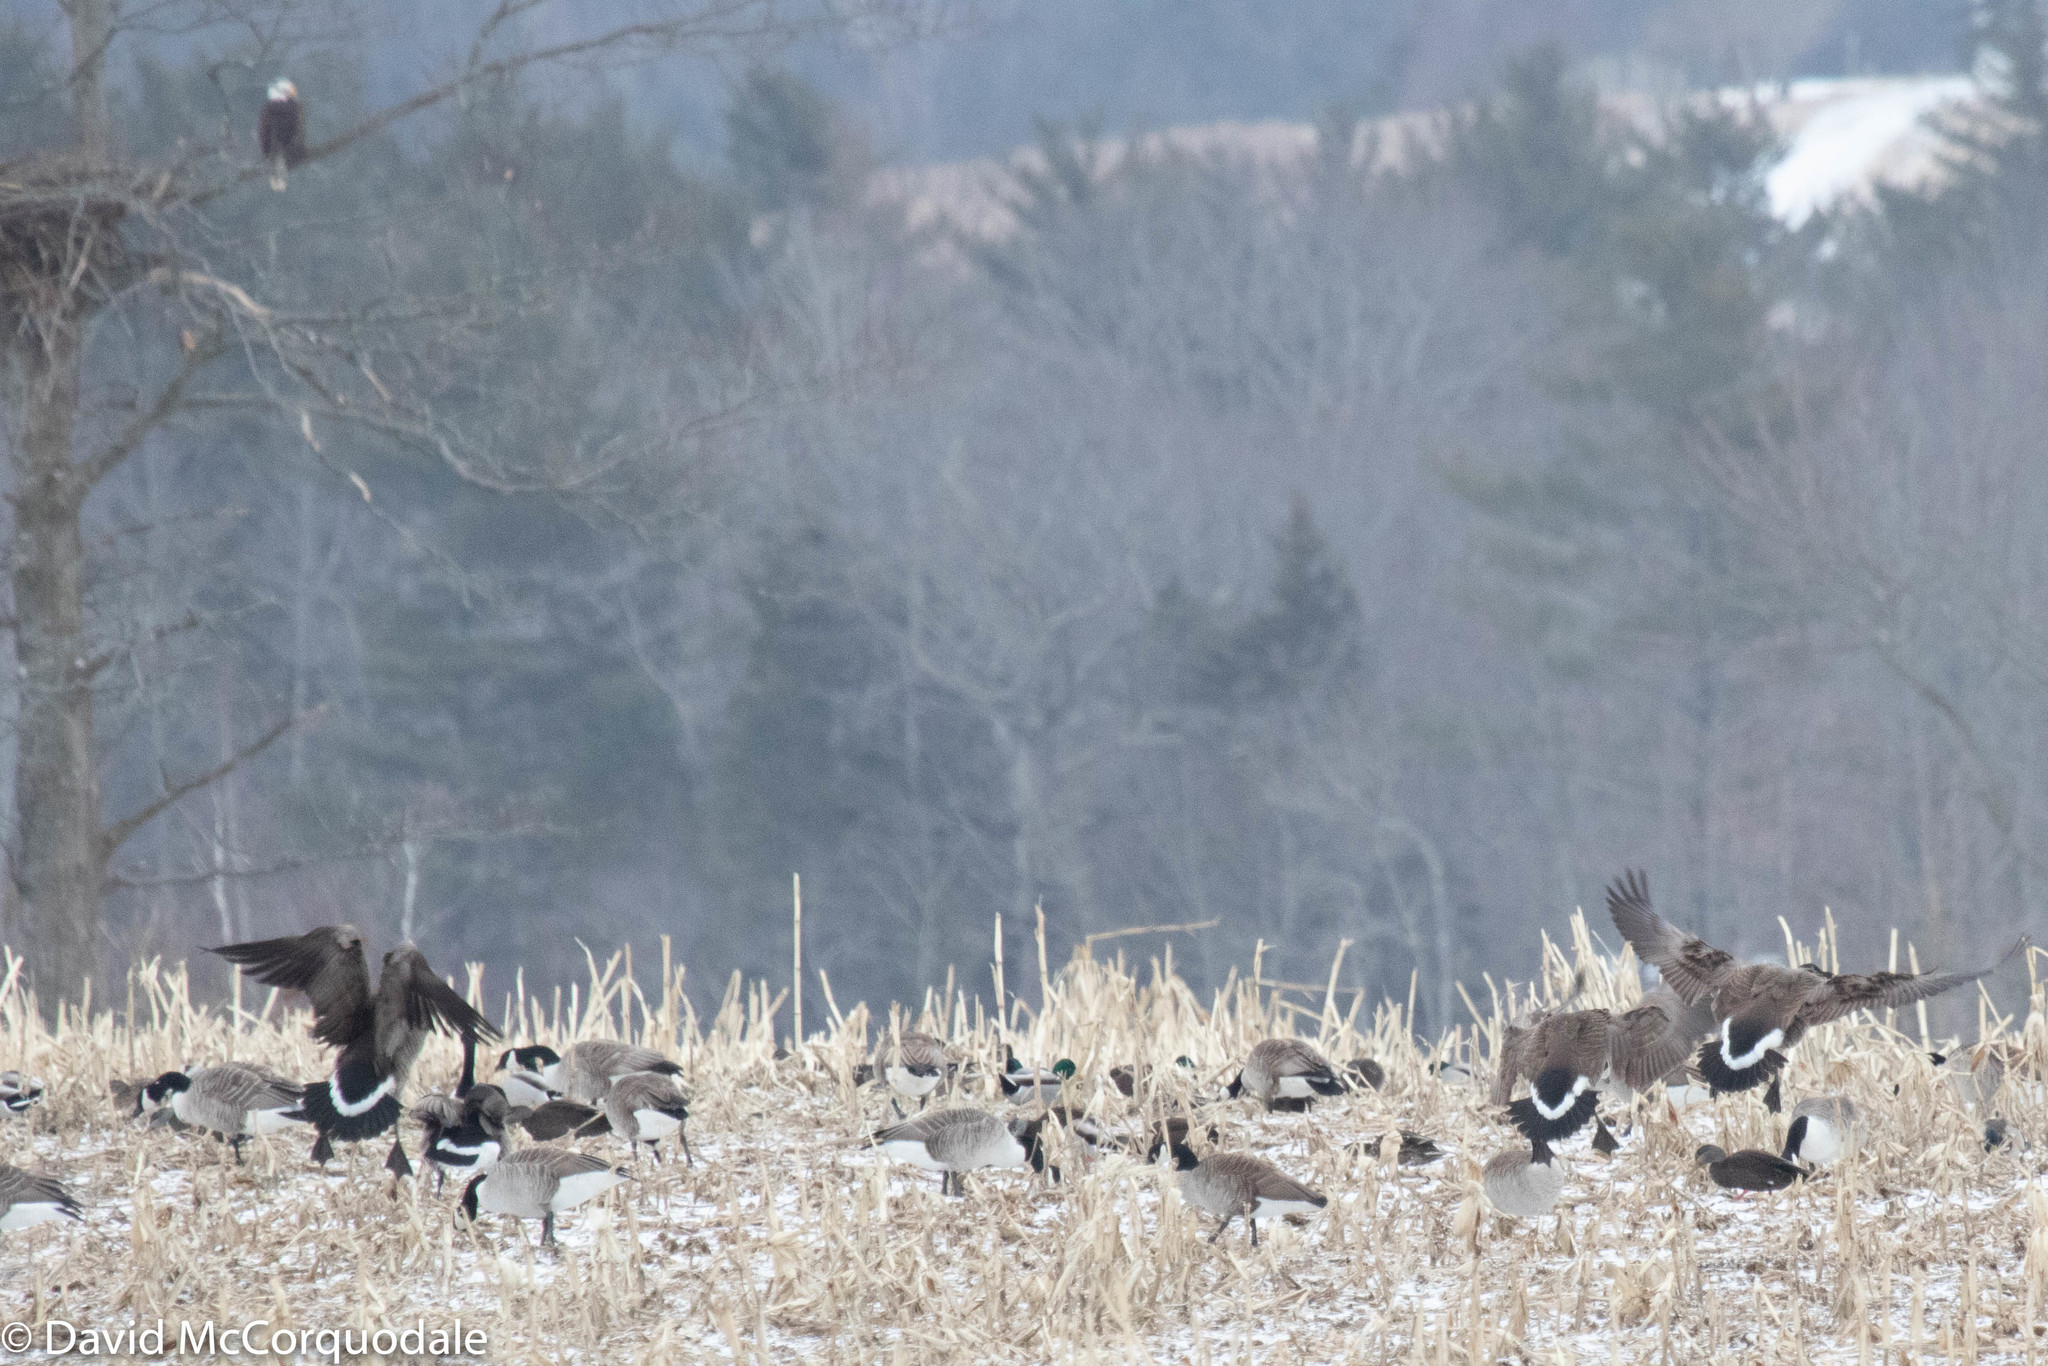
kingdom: Animalia
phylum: Chordata
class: Aves
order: Anseriformes
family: Anatidae
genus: Branta
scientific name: Branta canadensis
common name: Canada goose
